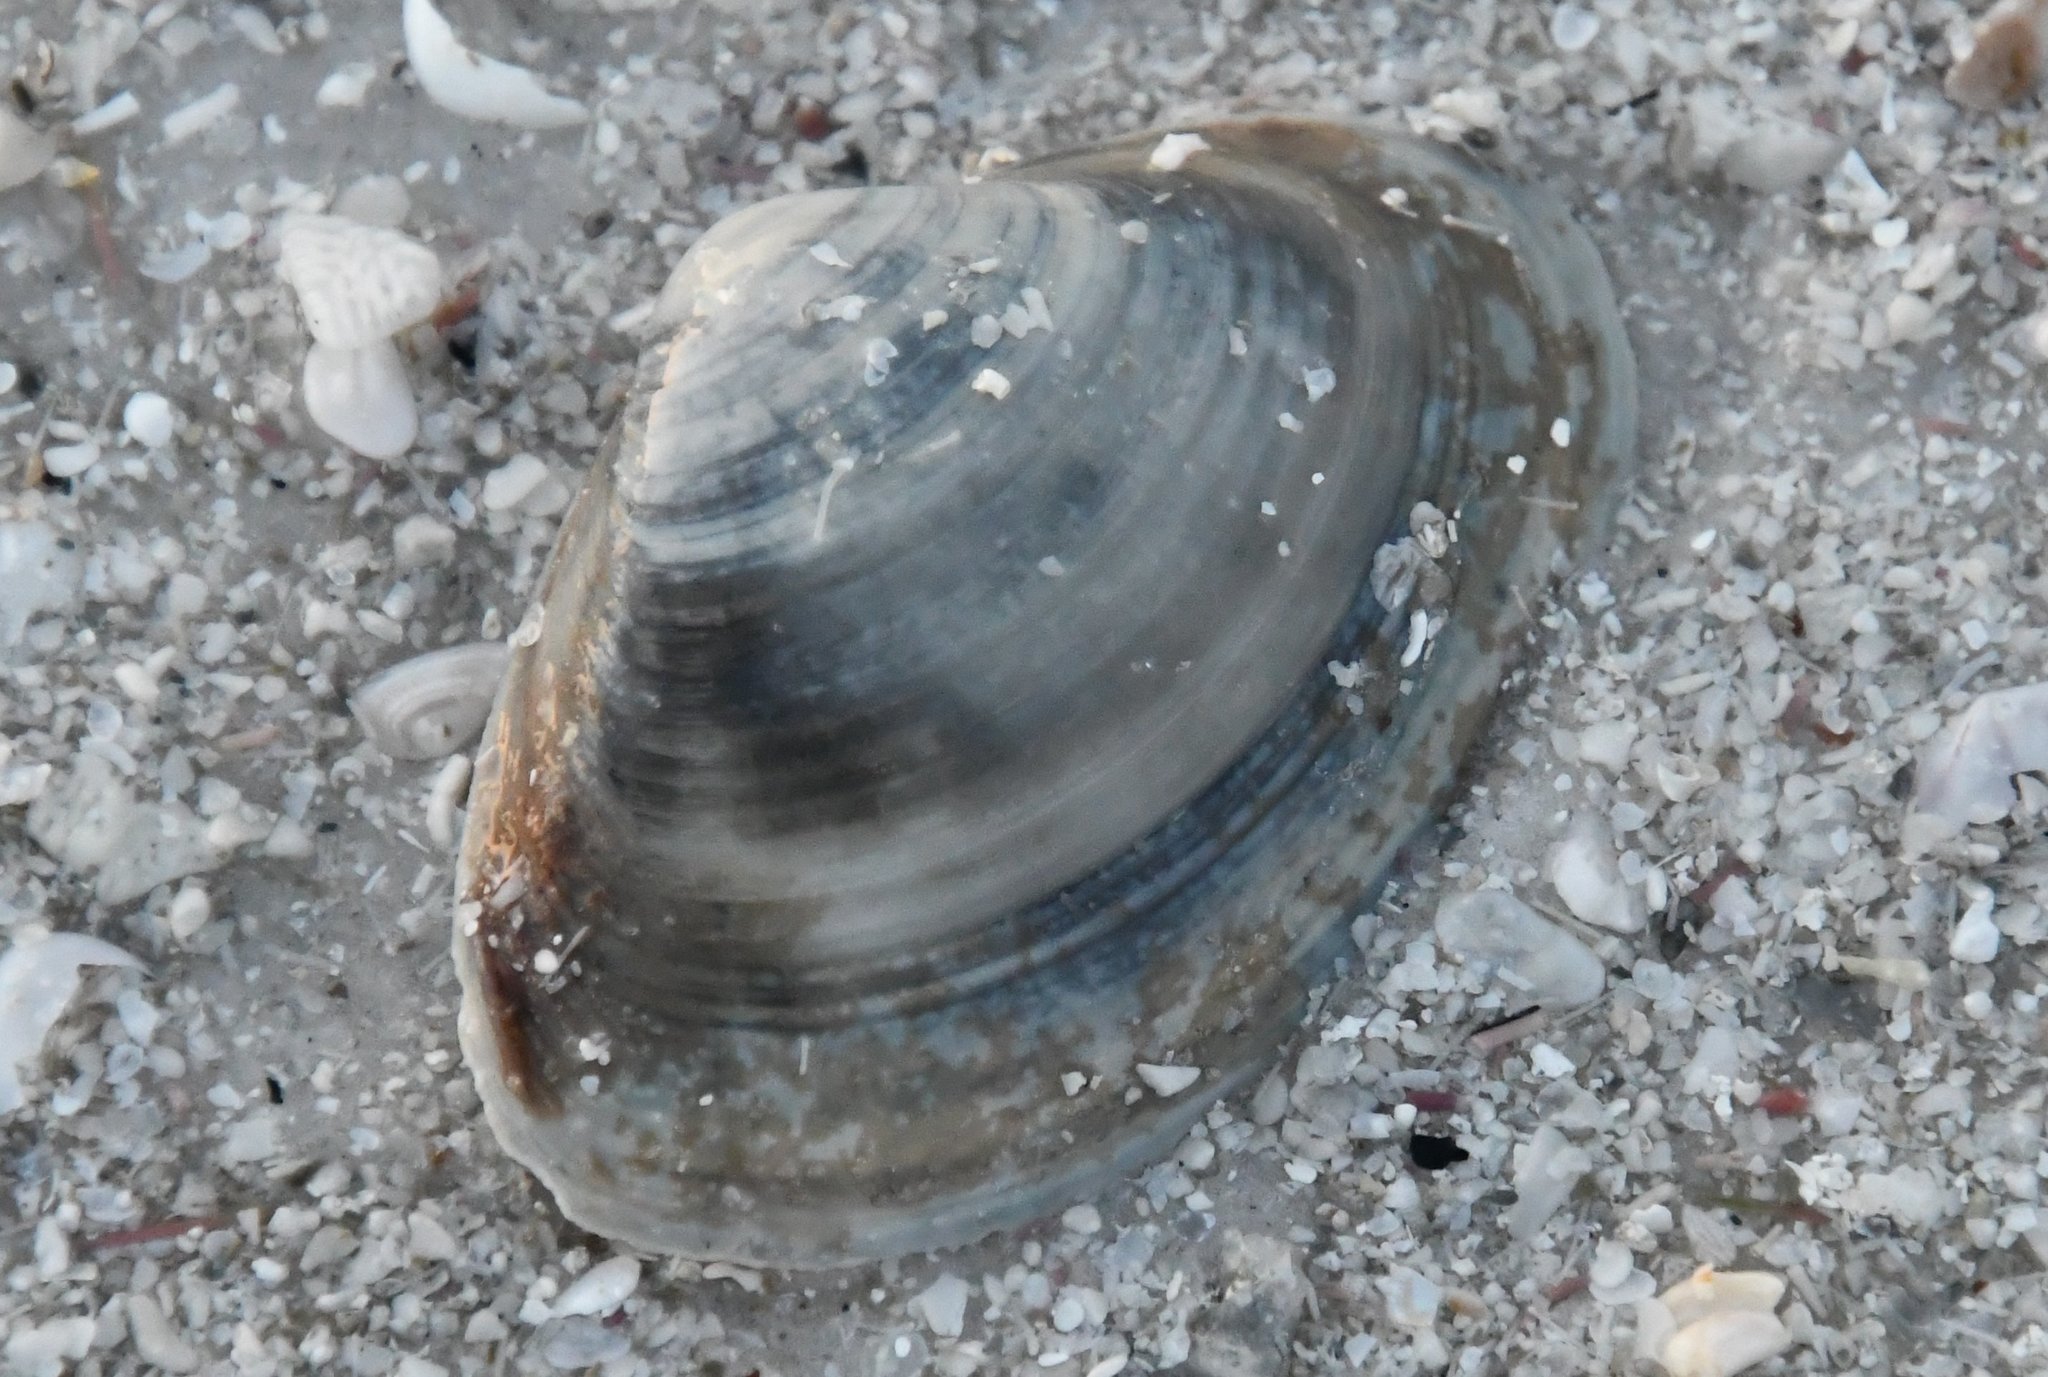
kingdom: Animalia
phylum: Mollusca
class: Bivalvia
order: Venerida
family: Mactridae
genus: Spisula
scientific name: Spisula raveneli
